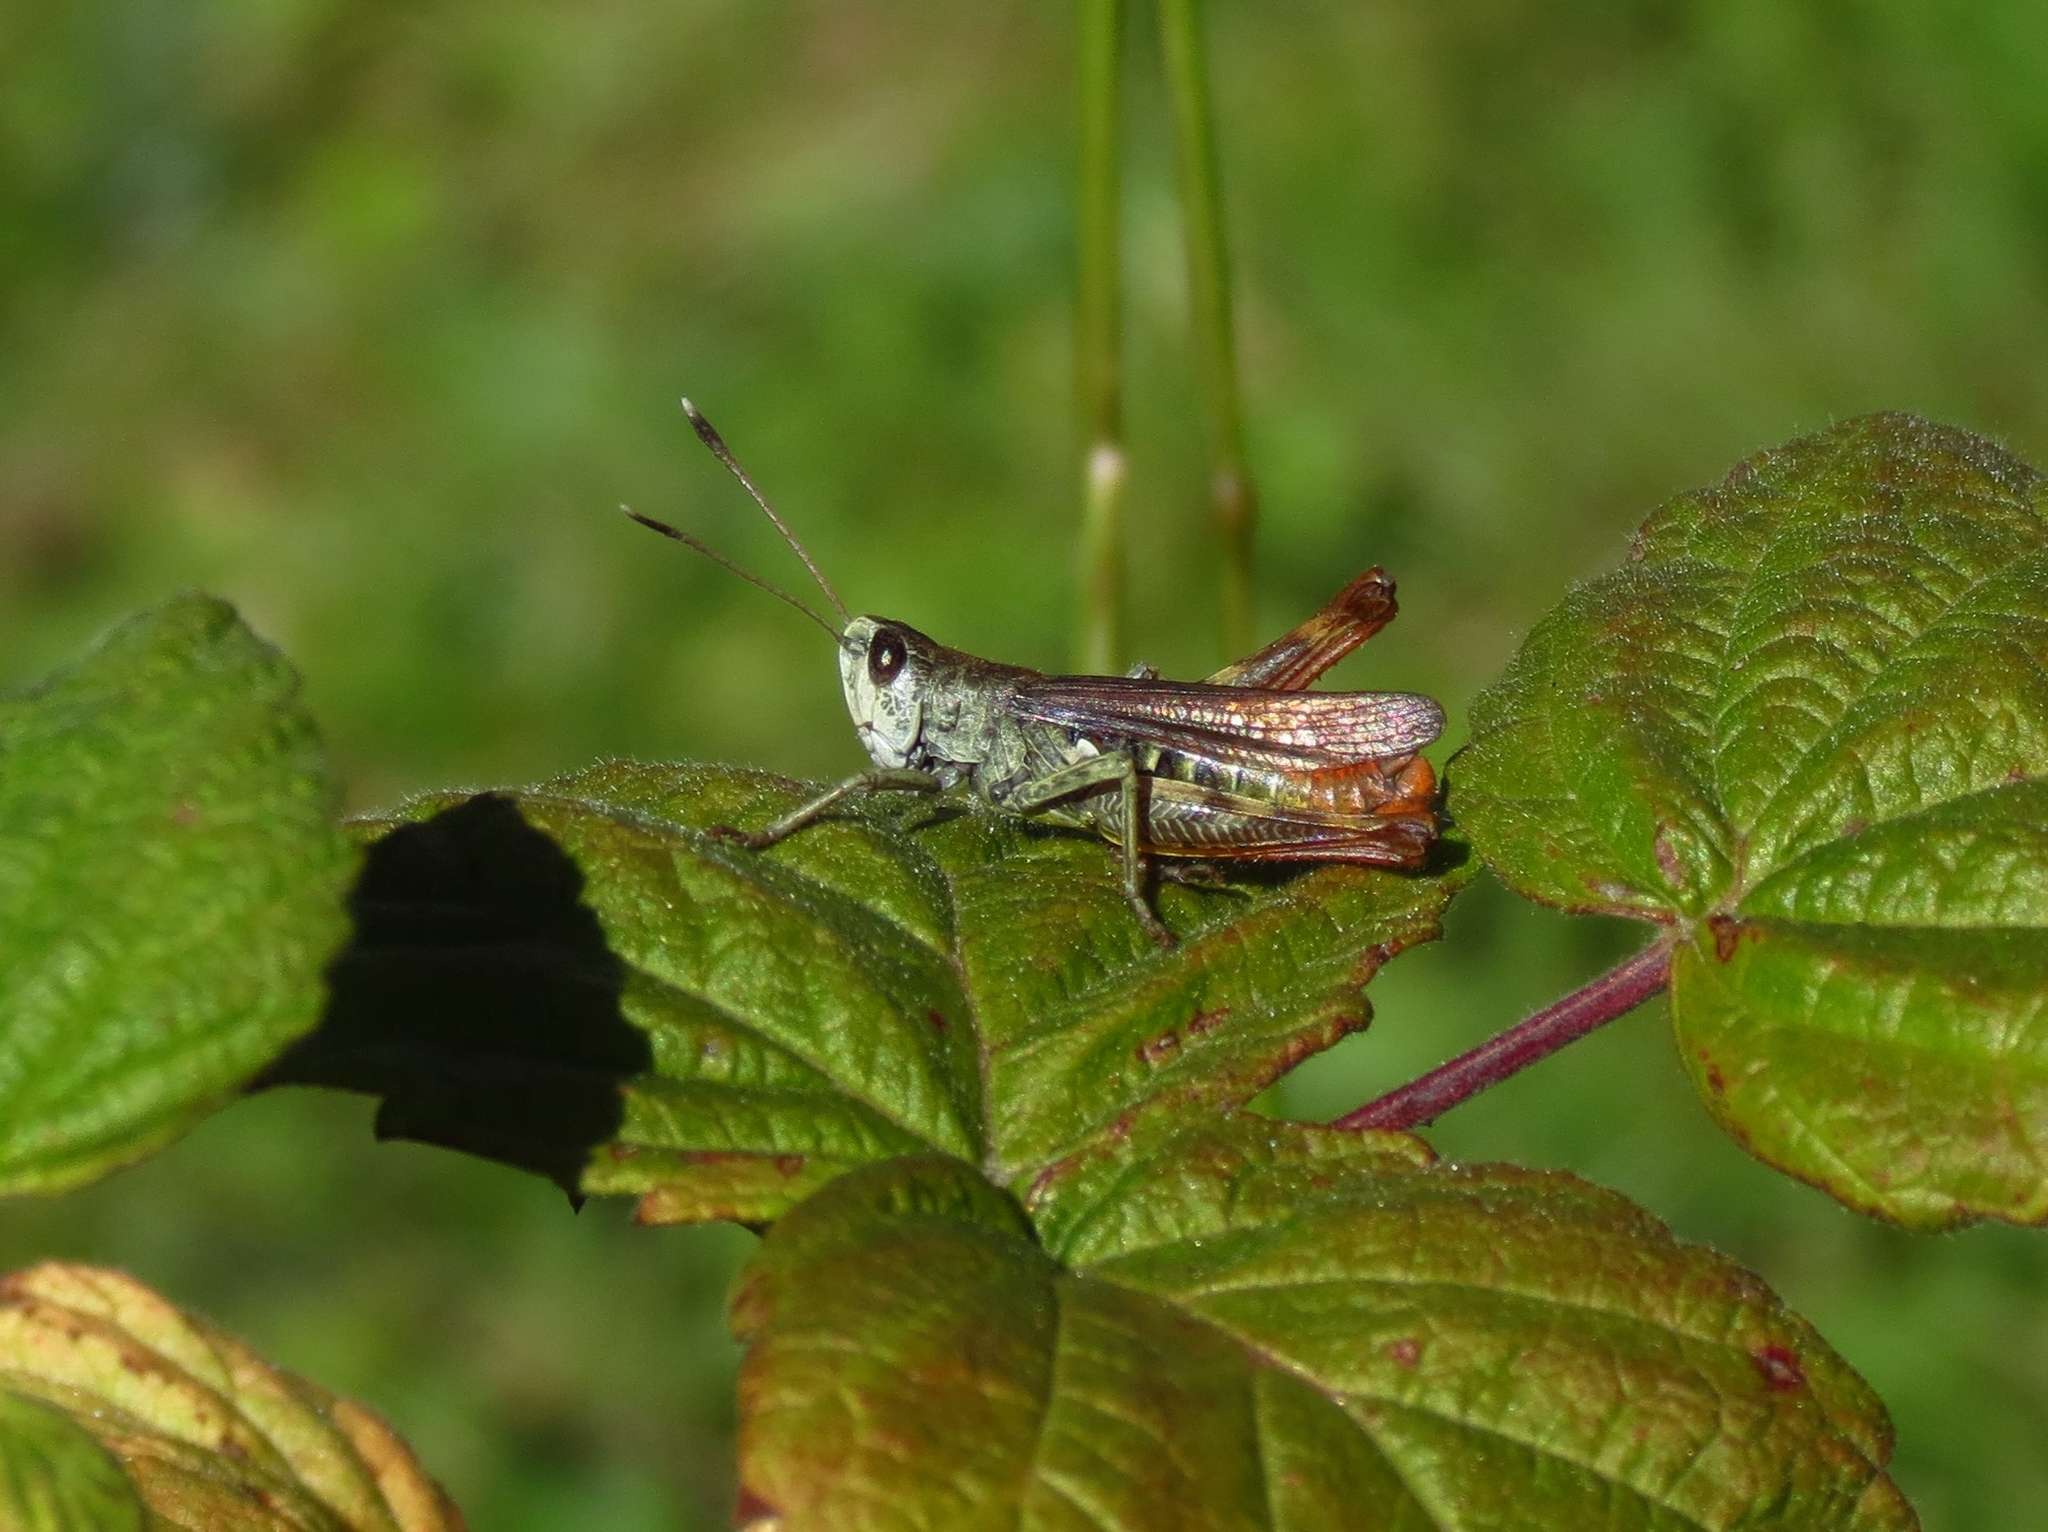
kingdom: Animalia
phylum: Arthropoda
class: Insecta
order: Orthoptera
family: Acrididae
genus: Gomphocerippus
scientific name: Gomphocerippus rufus
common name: Rufous grasshopper
